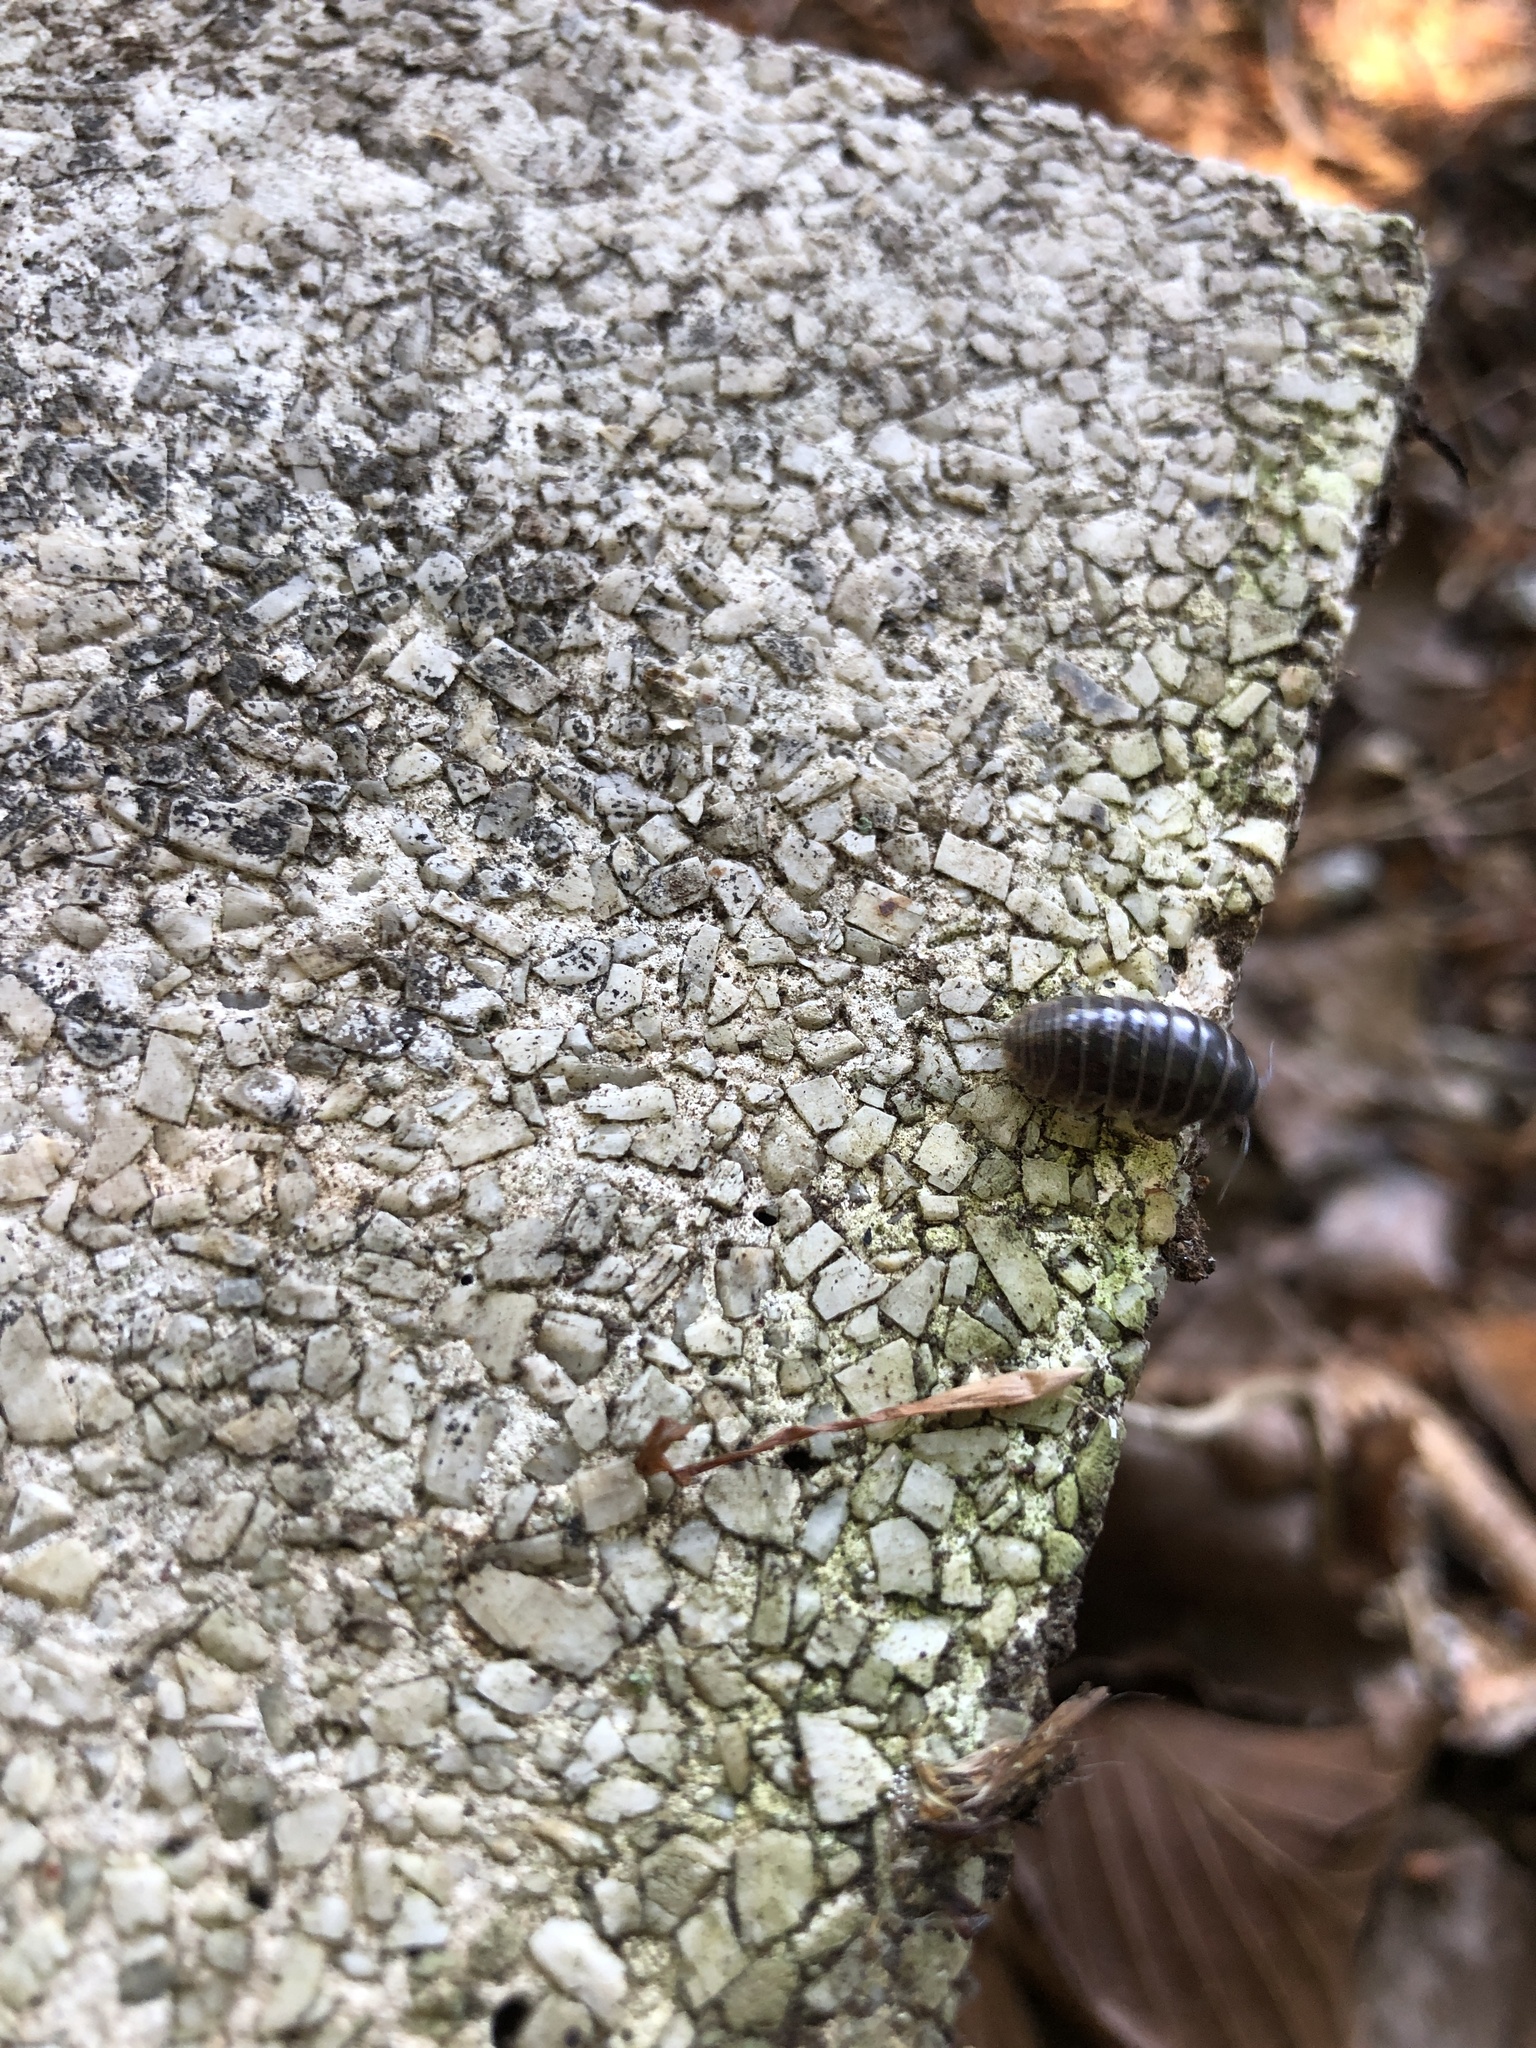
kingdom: Animalia
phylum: Arthropoda
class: Malacostraca
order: Isopoda
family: Armadillidiidae
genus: Armadillidium
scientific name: Armadillidium vulgare
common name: Common pill woodlouse
